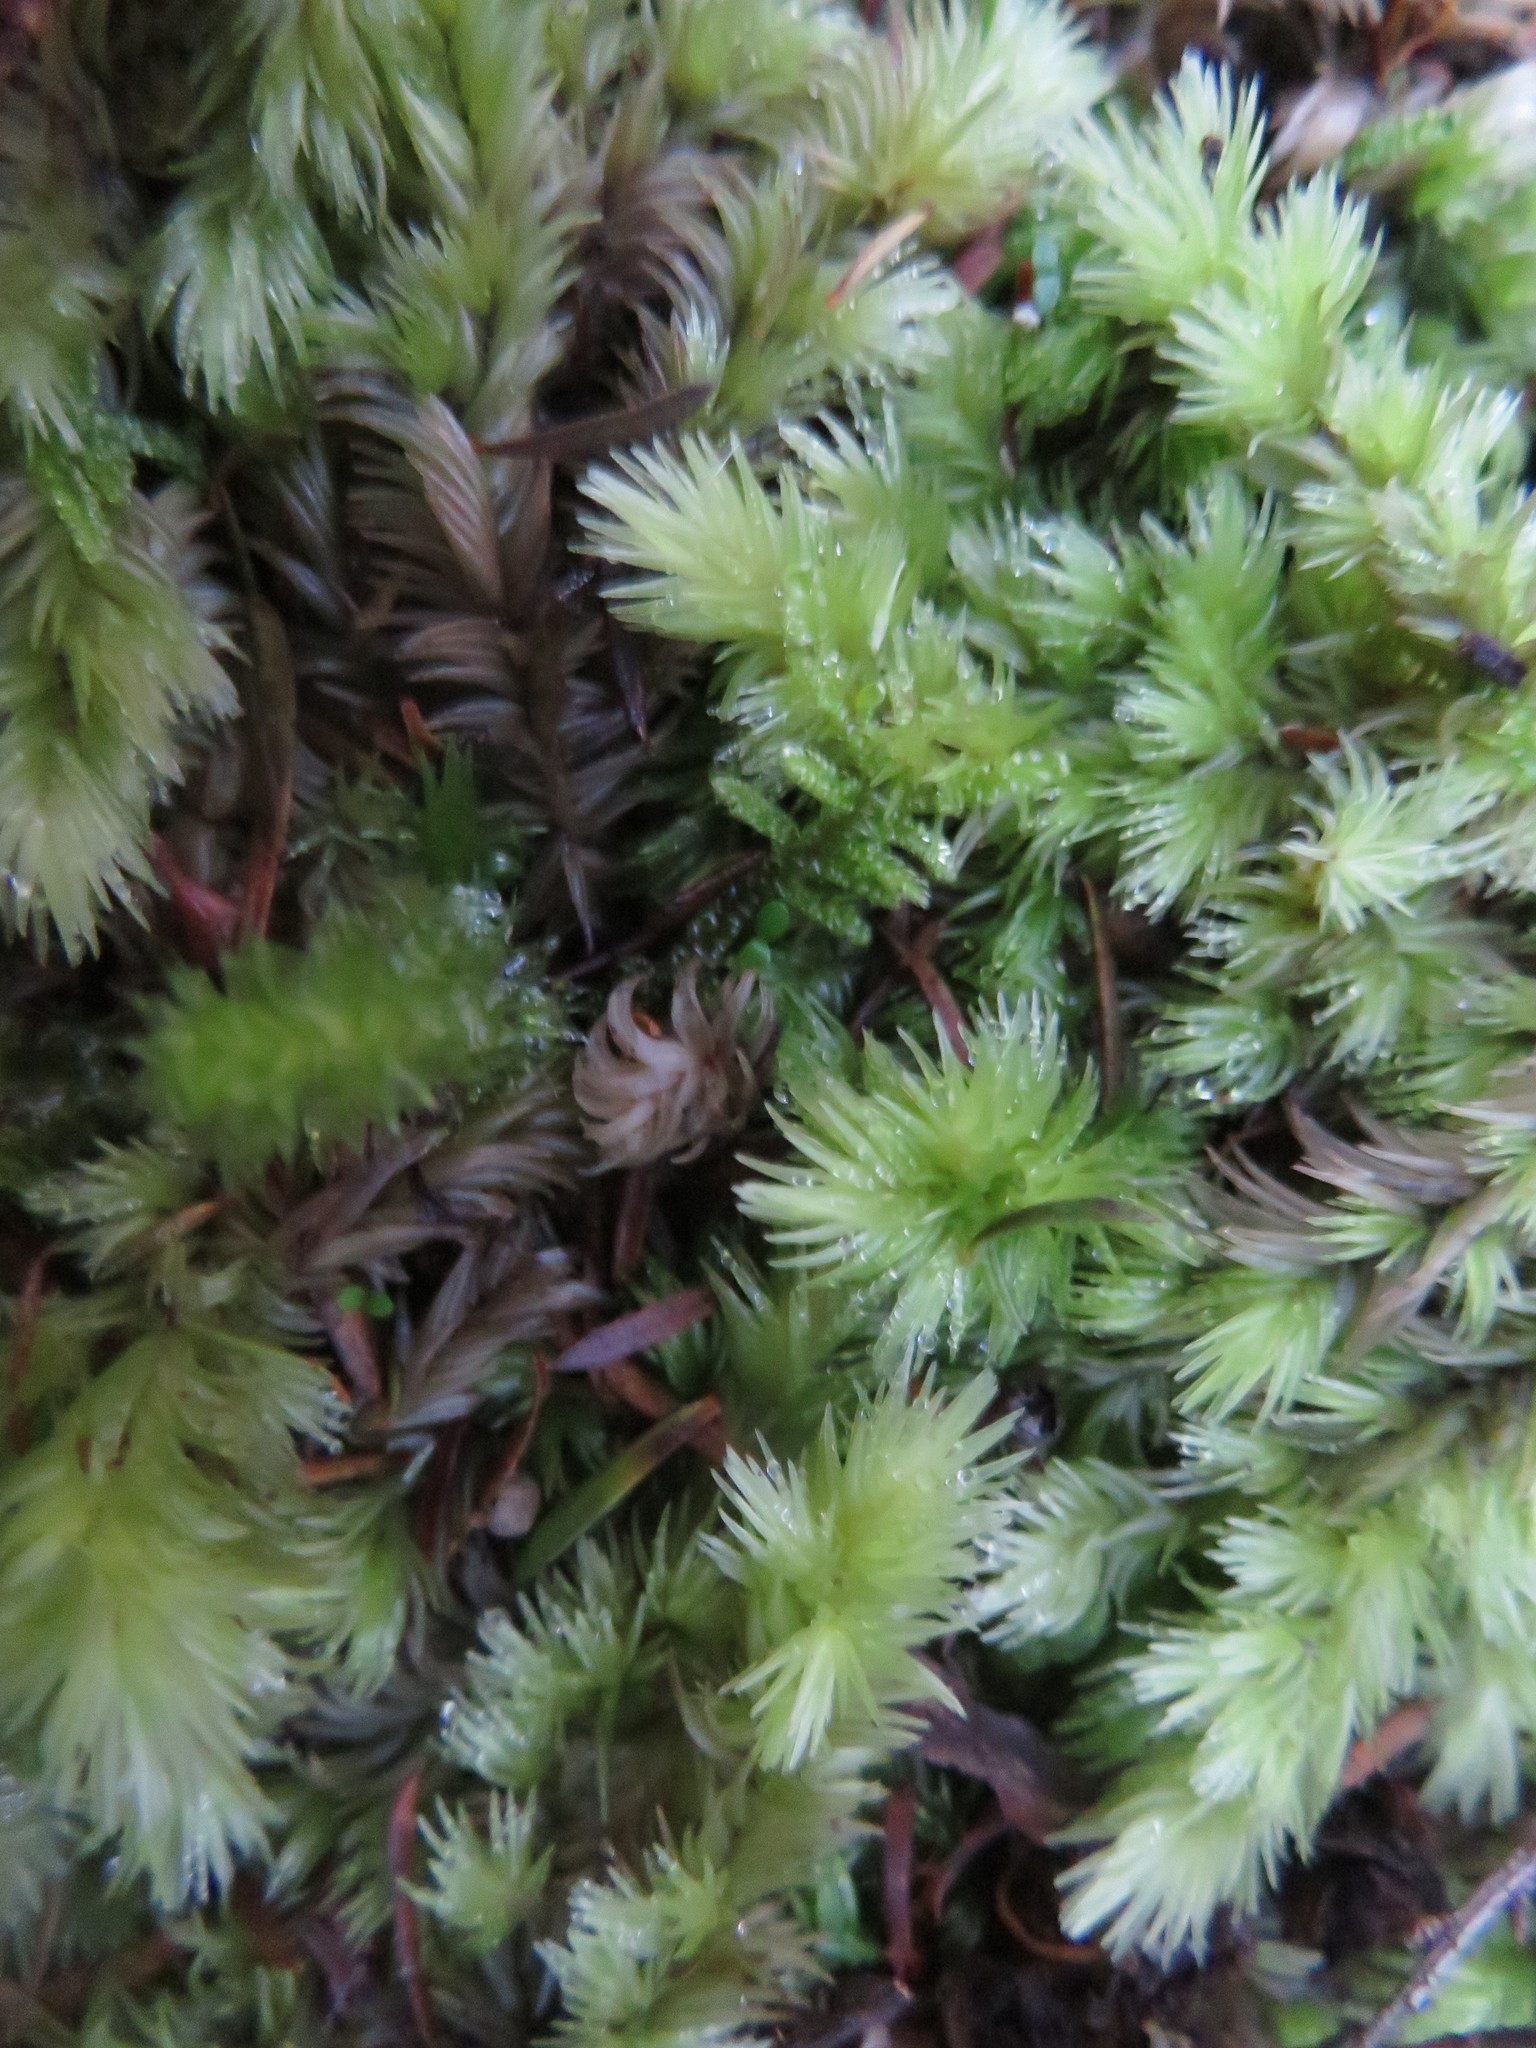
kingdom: Plantae
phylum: Bryophyta
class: Bryopsida
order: Dicranales
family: Leucobryaceae
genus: Leucobryum
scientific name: Leucobryum javense
